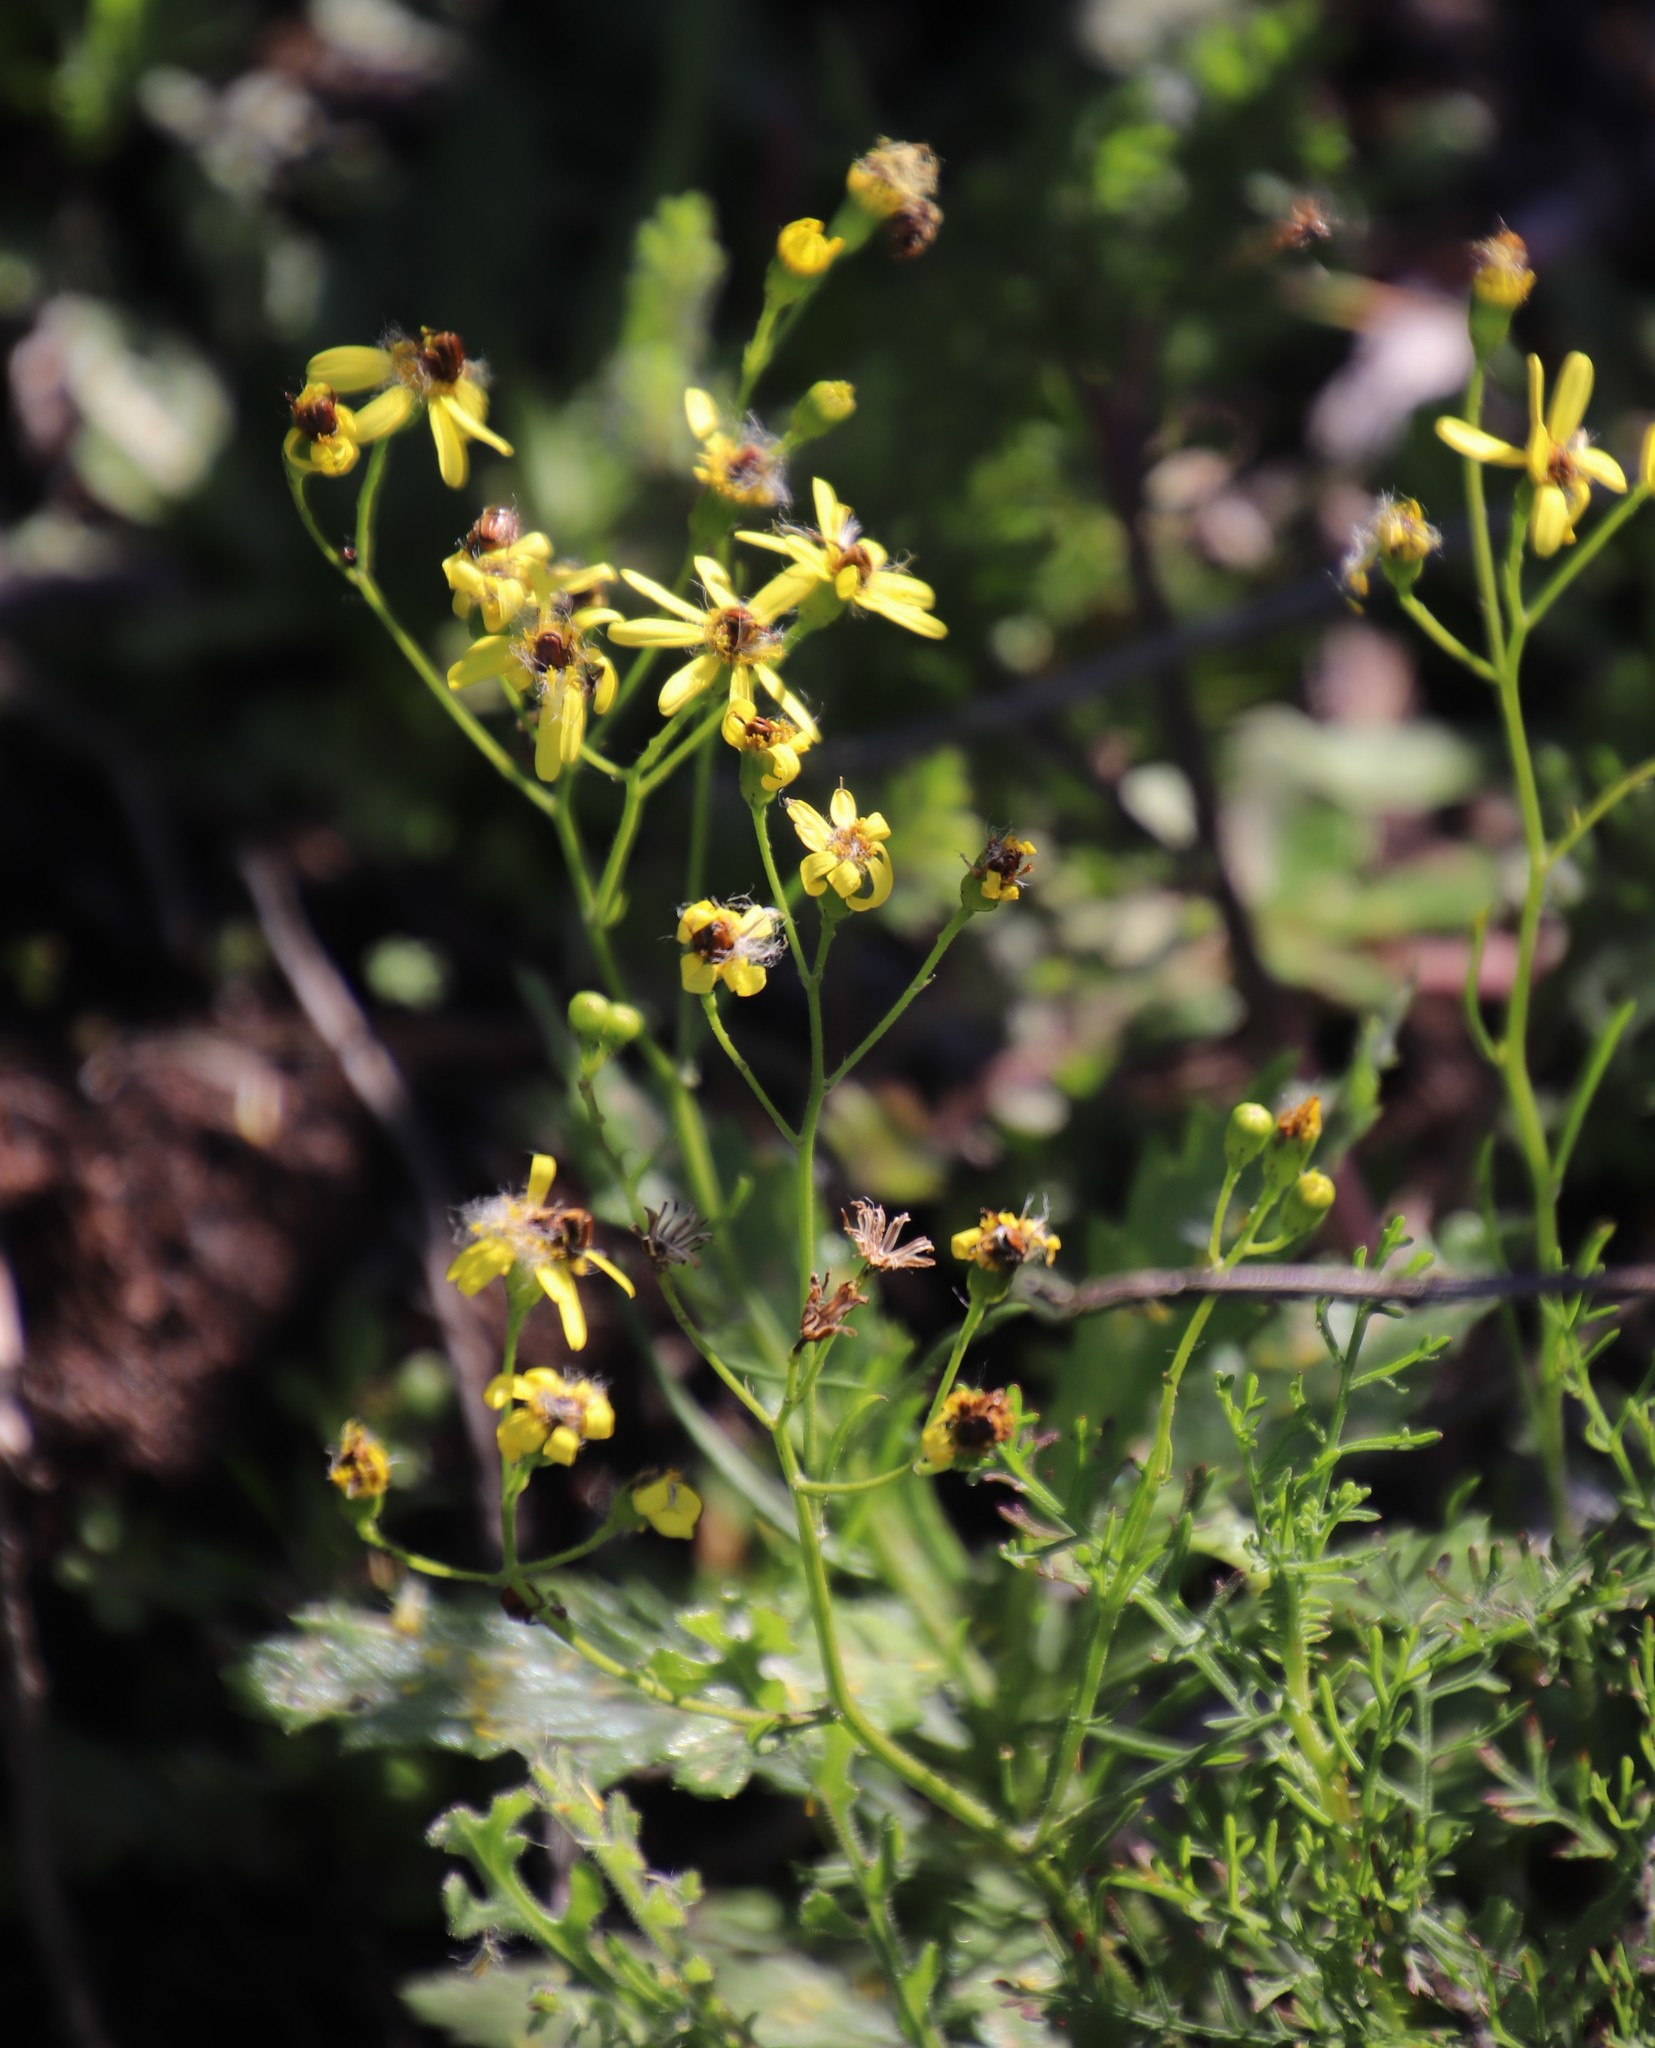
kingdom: Plantae
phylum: Tracheophyta
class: Magnoliopsida
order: Asterales
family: Asteraceae
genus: Senecio
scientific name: Senecio burchellii
